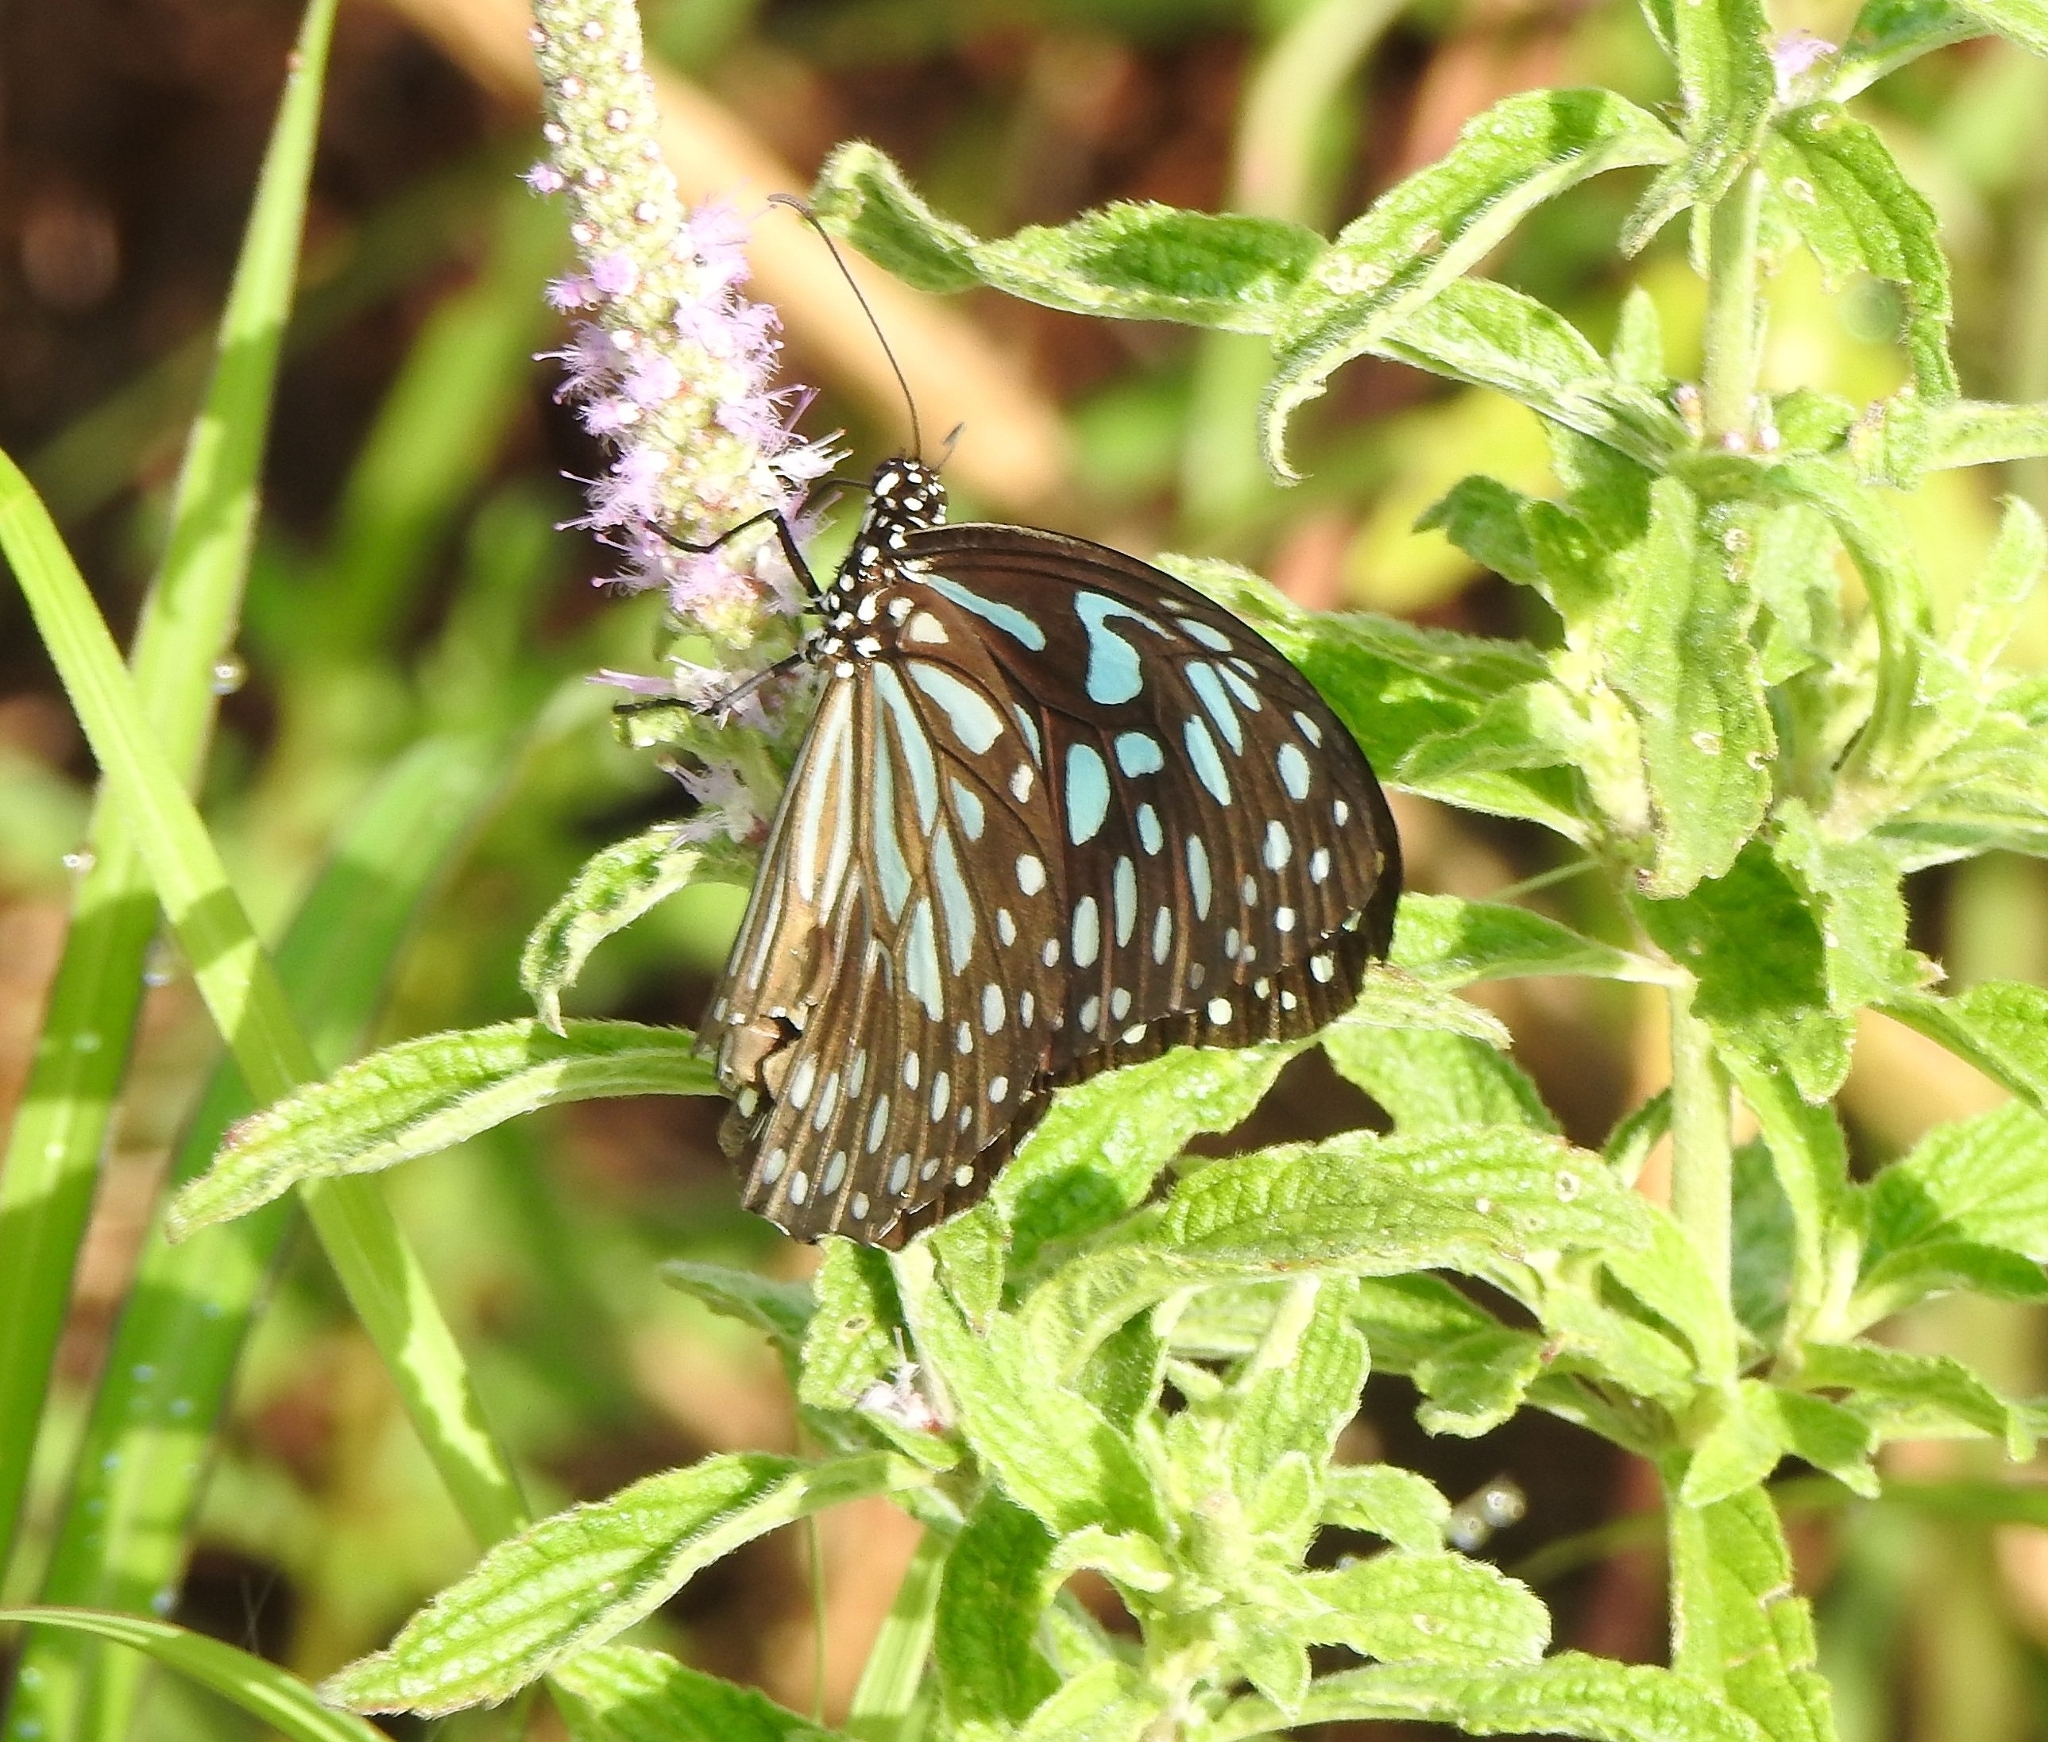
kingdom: Animalia
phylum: Arthropoda
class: Insecta
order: Lepidoptera
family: Nymphalidae
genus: Tirumala
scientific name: Tirumala septentrionis
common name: Dark blue tiger butterfly
